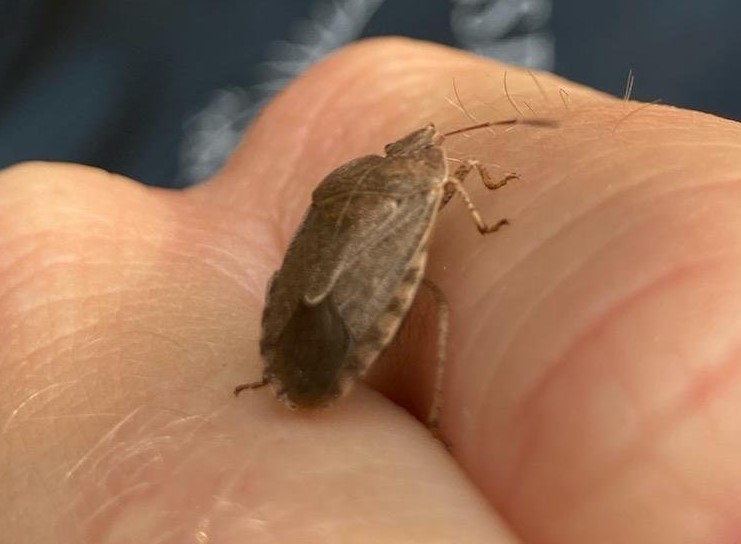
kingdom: Animalia
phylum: Arthropoda
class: Insecta
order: Hemiptera
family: Pentatomidae
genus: Menecles
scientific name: Menecles insertus
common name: Elf shoe stink bug
